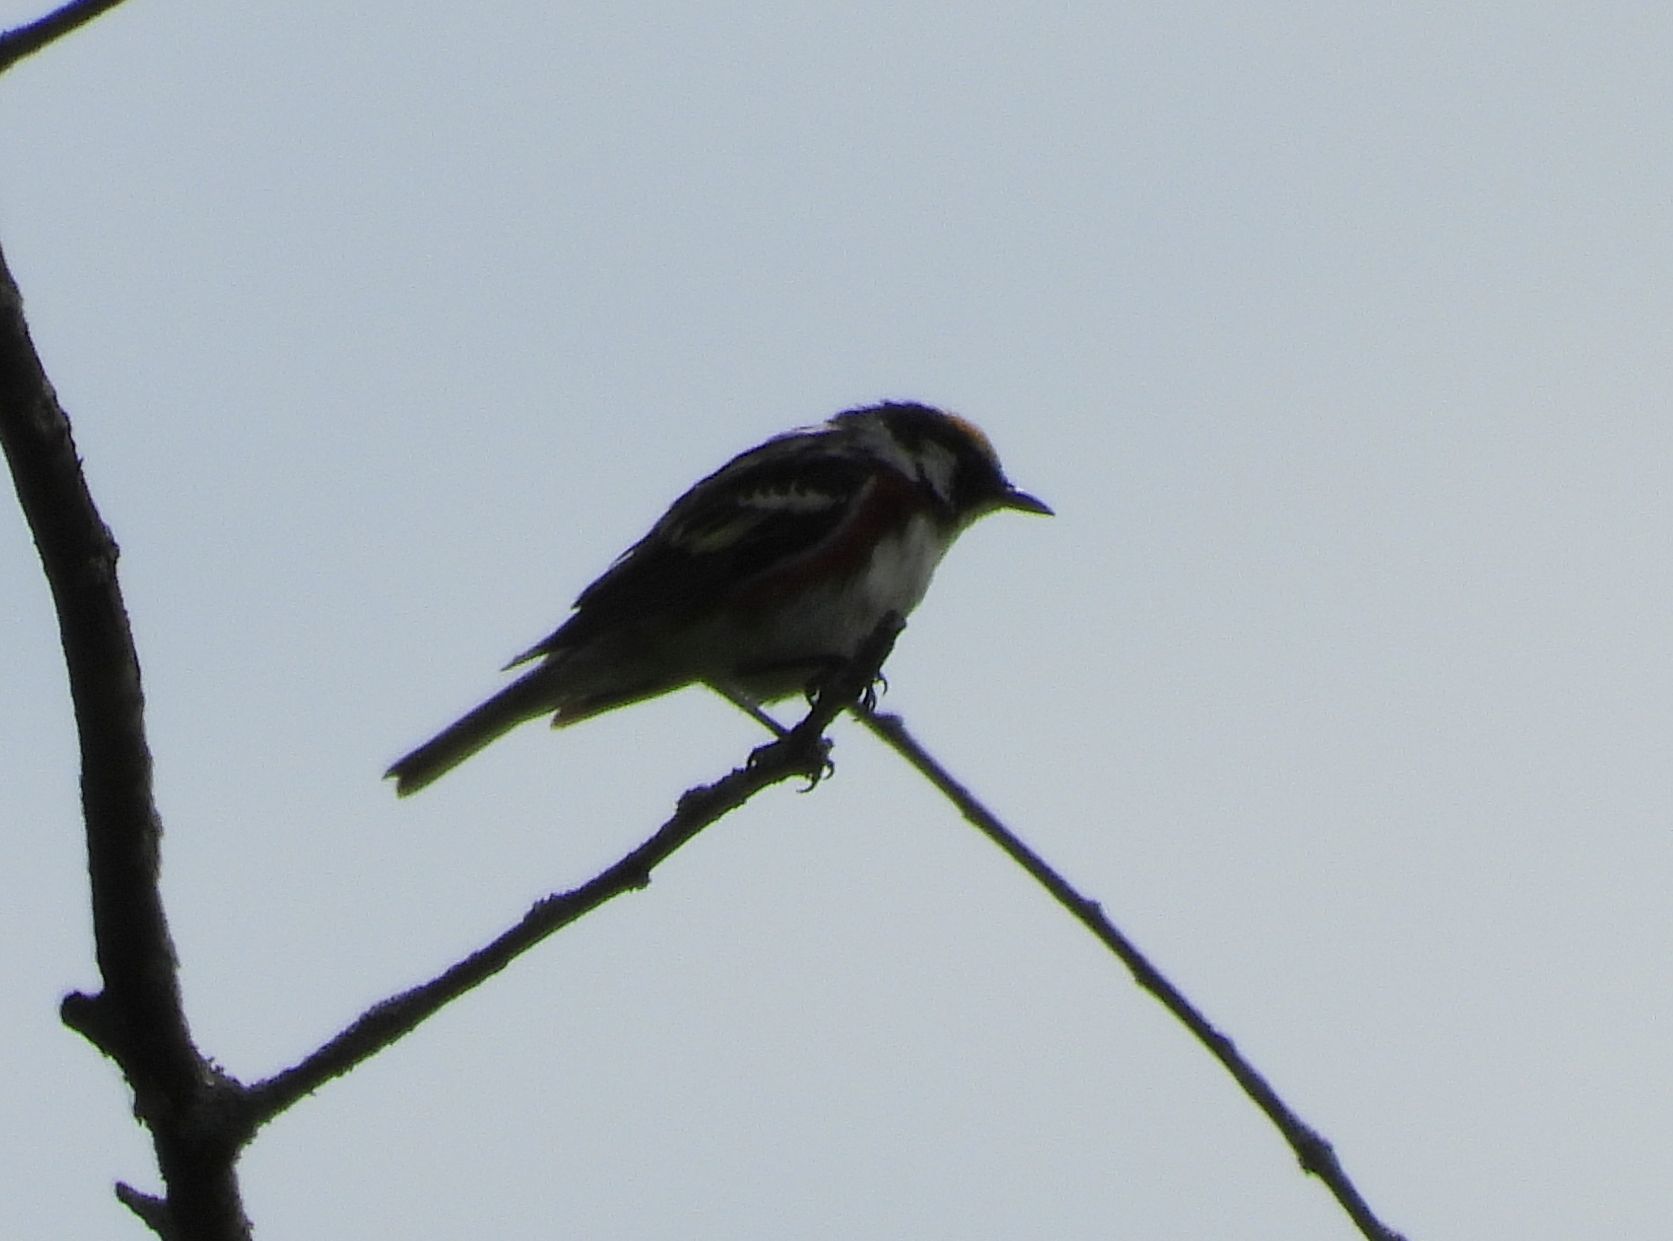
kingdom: Animalia
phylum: Chordata
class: Aves
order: Passeriformes
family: Parulidae
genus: Setophaga
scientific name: Setophaga pensylvanica
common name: Chestnut-sided warbler
